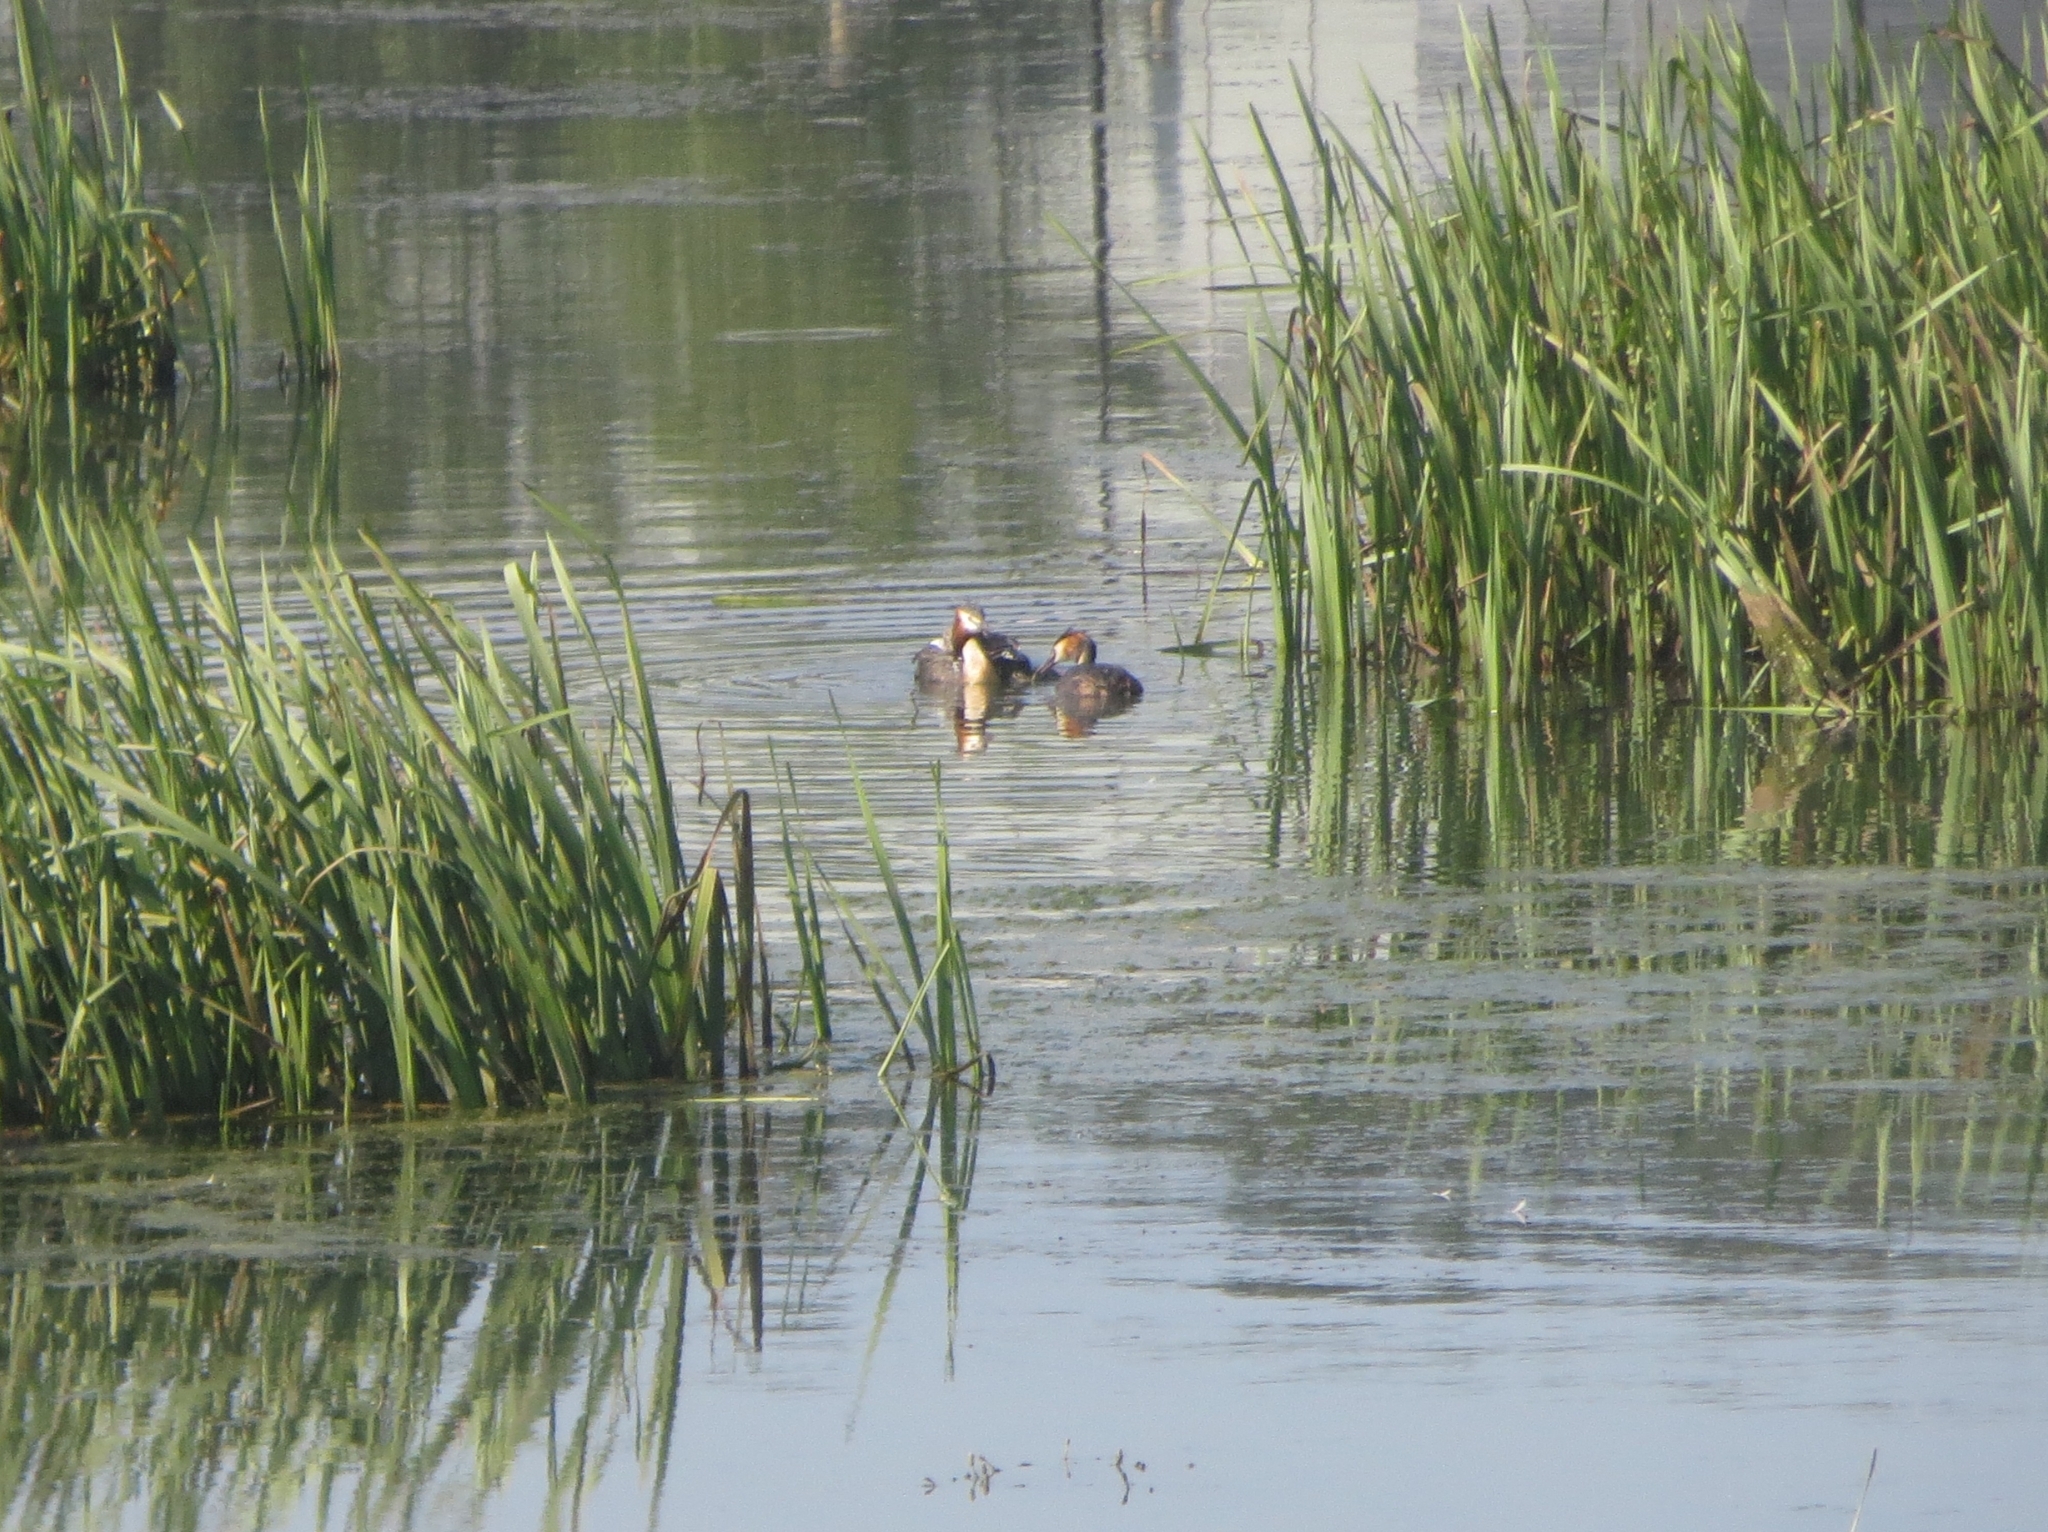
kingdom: Animalia
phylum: Chordata
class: Aves
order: Podicipediformes
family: Podicipedidae
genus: Podiceps
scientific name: Podiceps cristatus
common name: Great crested grebe
